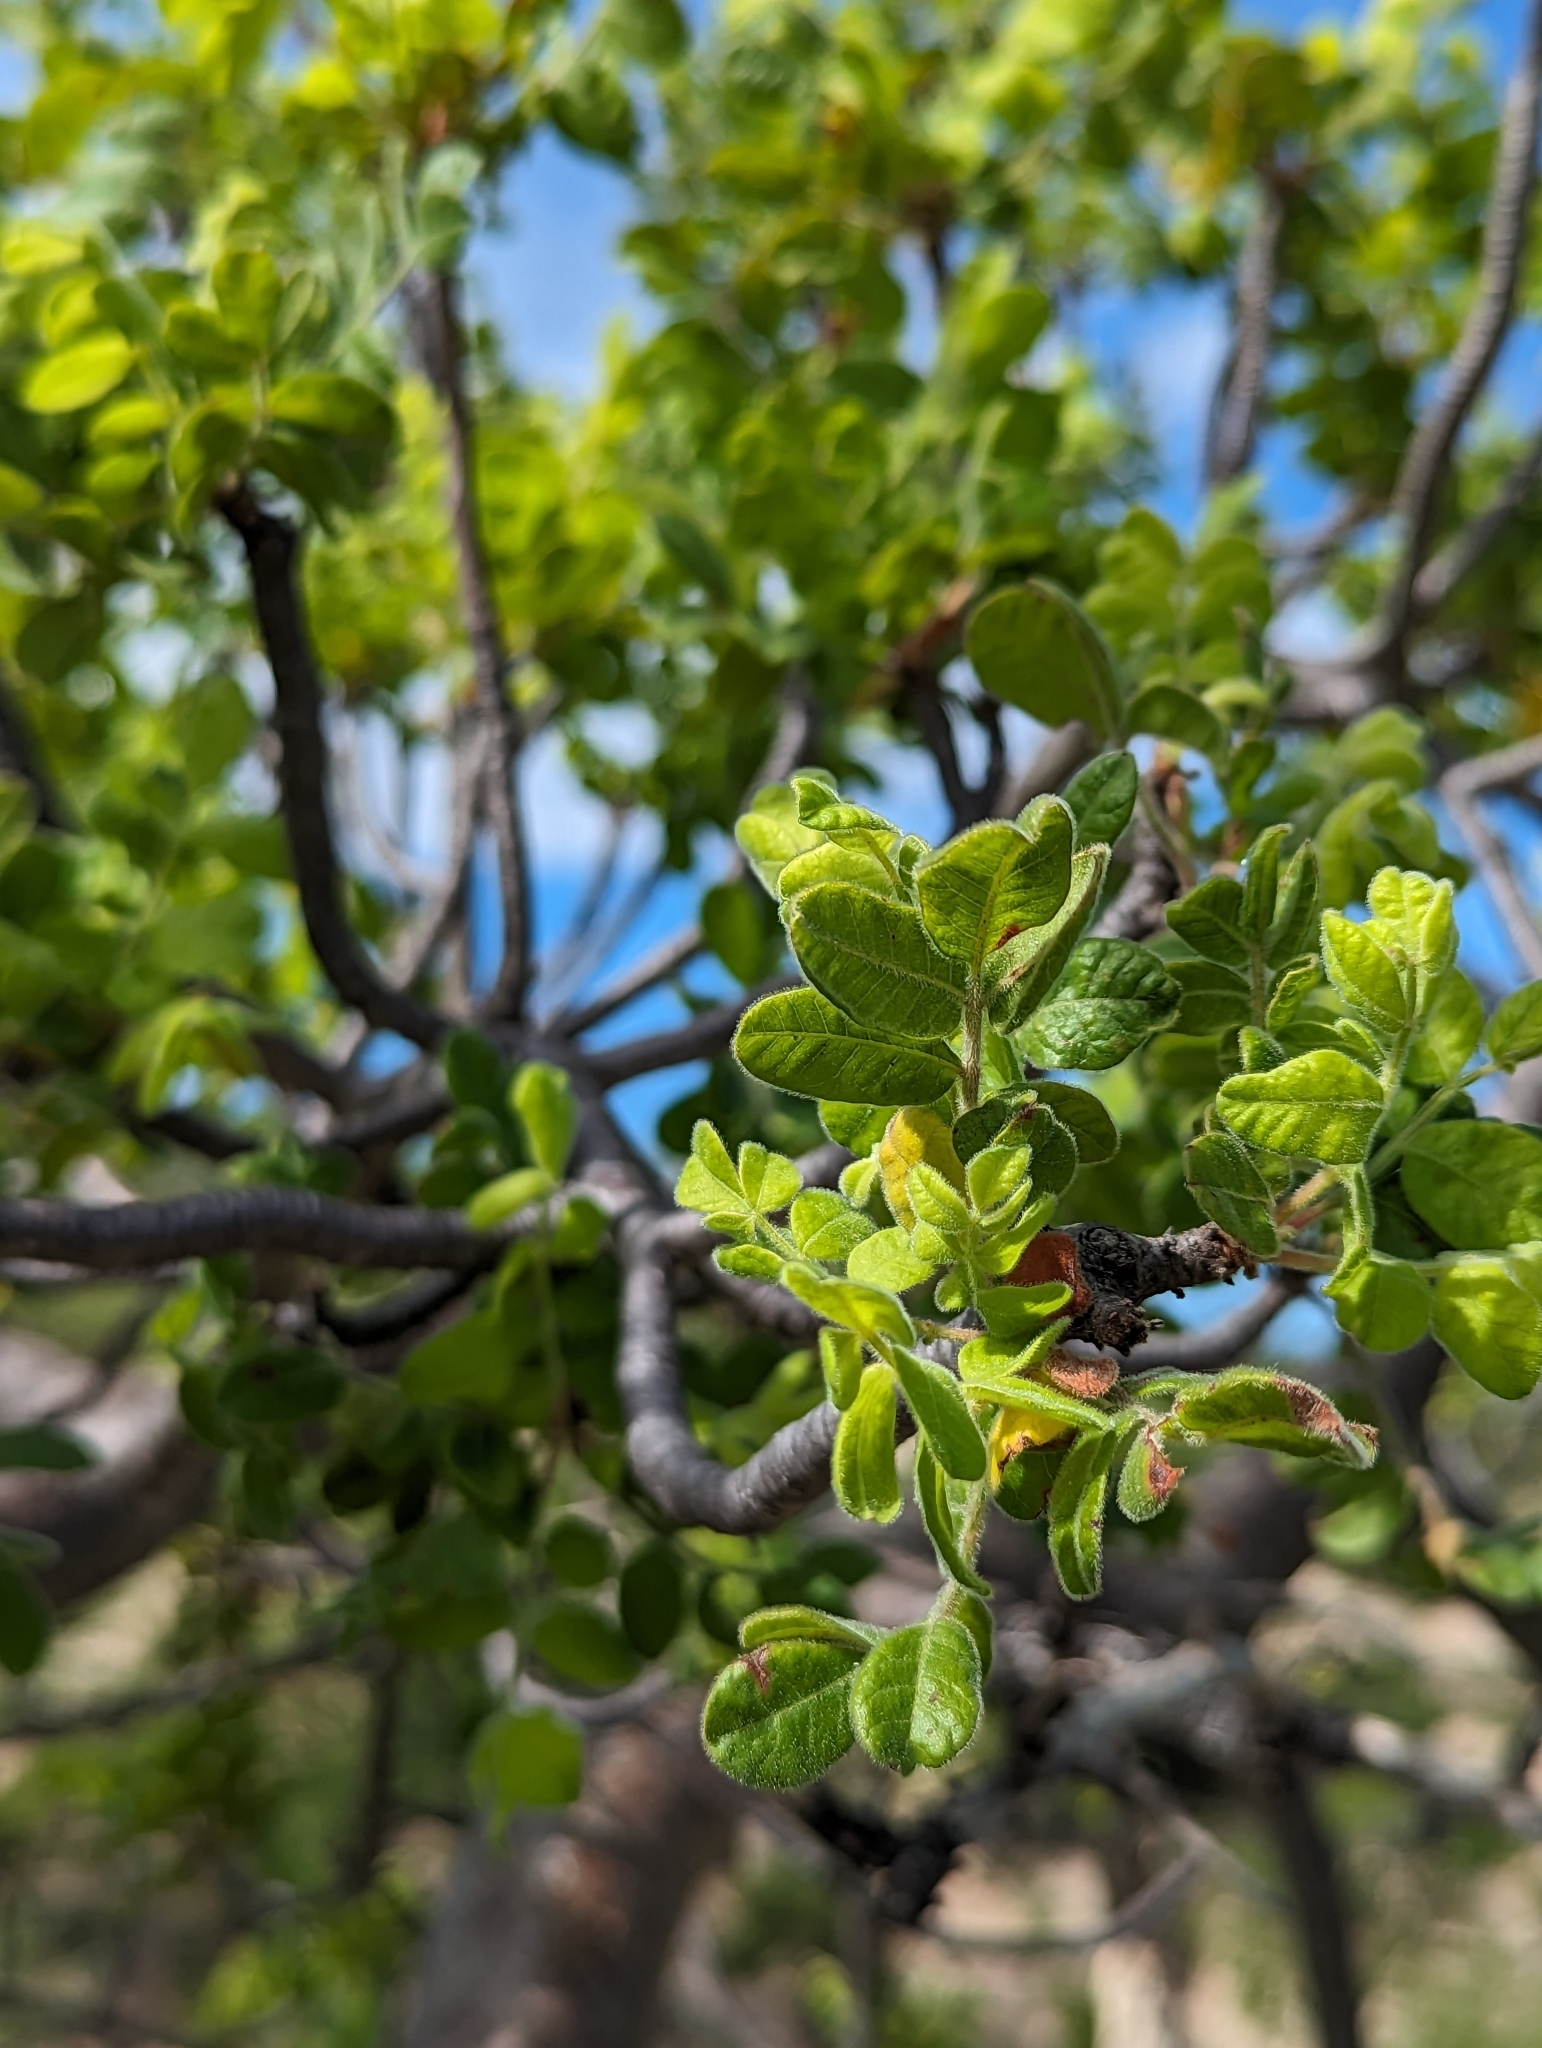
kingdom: Plantae
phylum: Tracheophyta
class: Magnoliopsida
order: Sapindales
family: Anacardiaceae
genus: Cyrtocarpa
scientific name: Cyrtocarpa edulis
